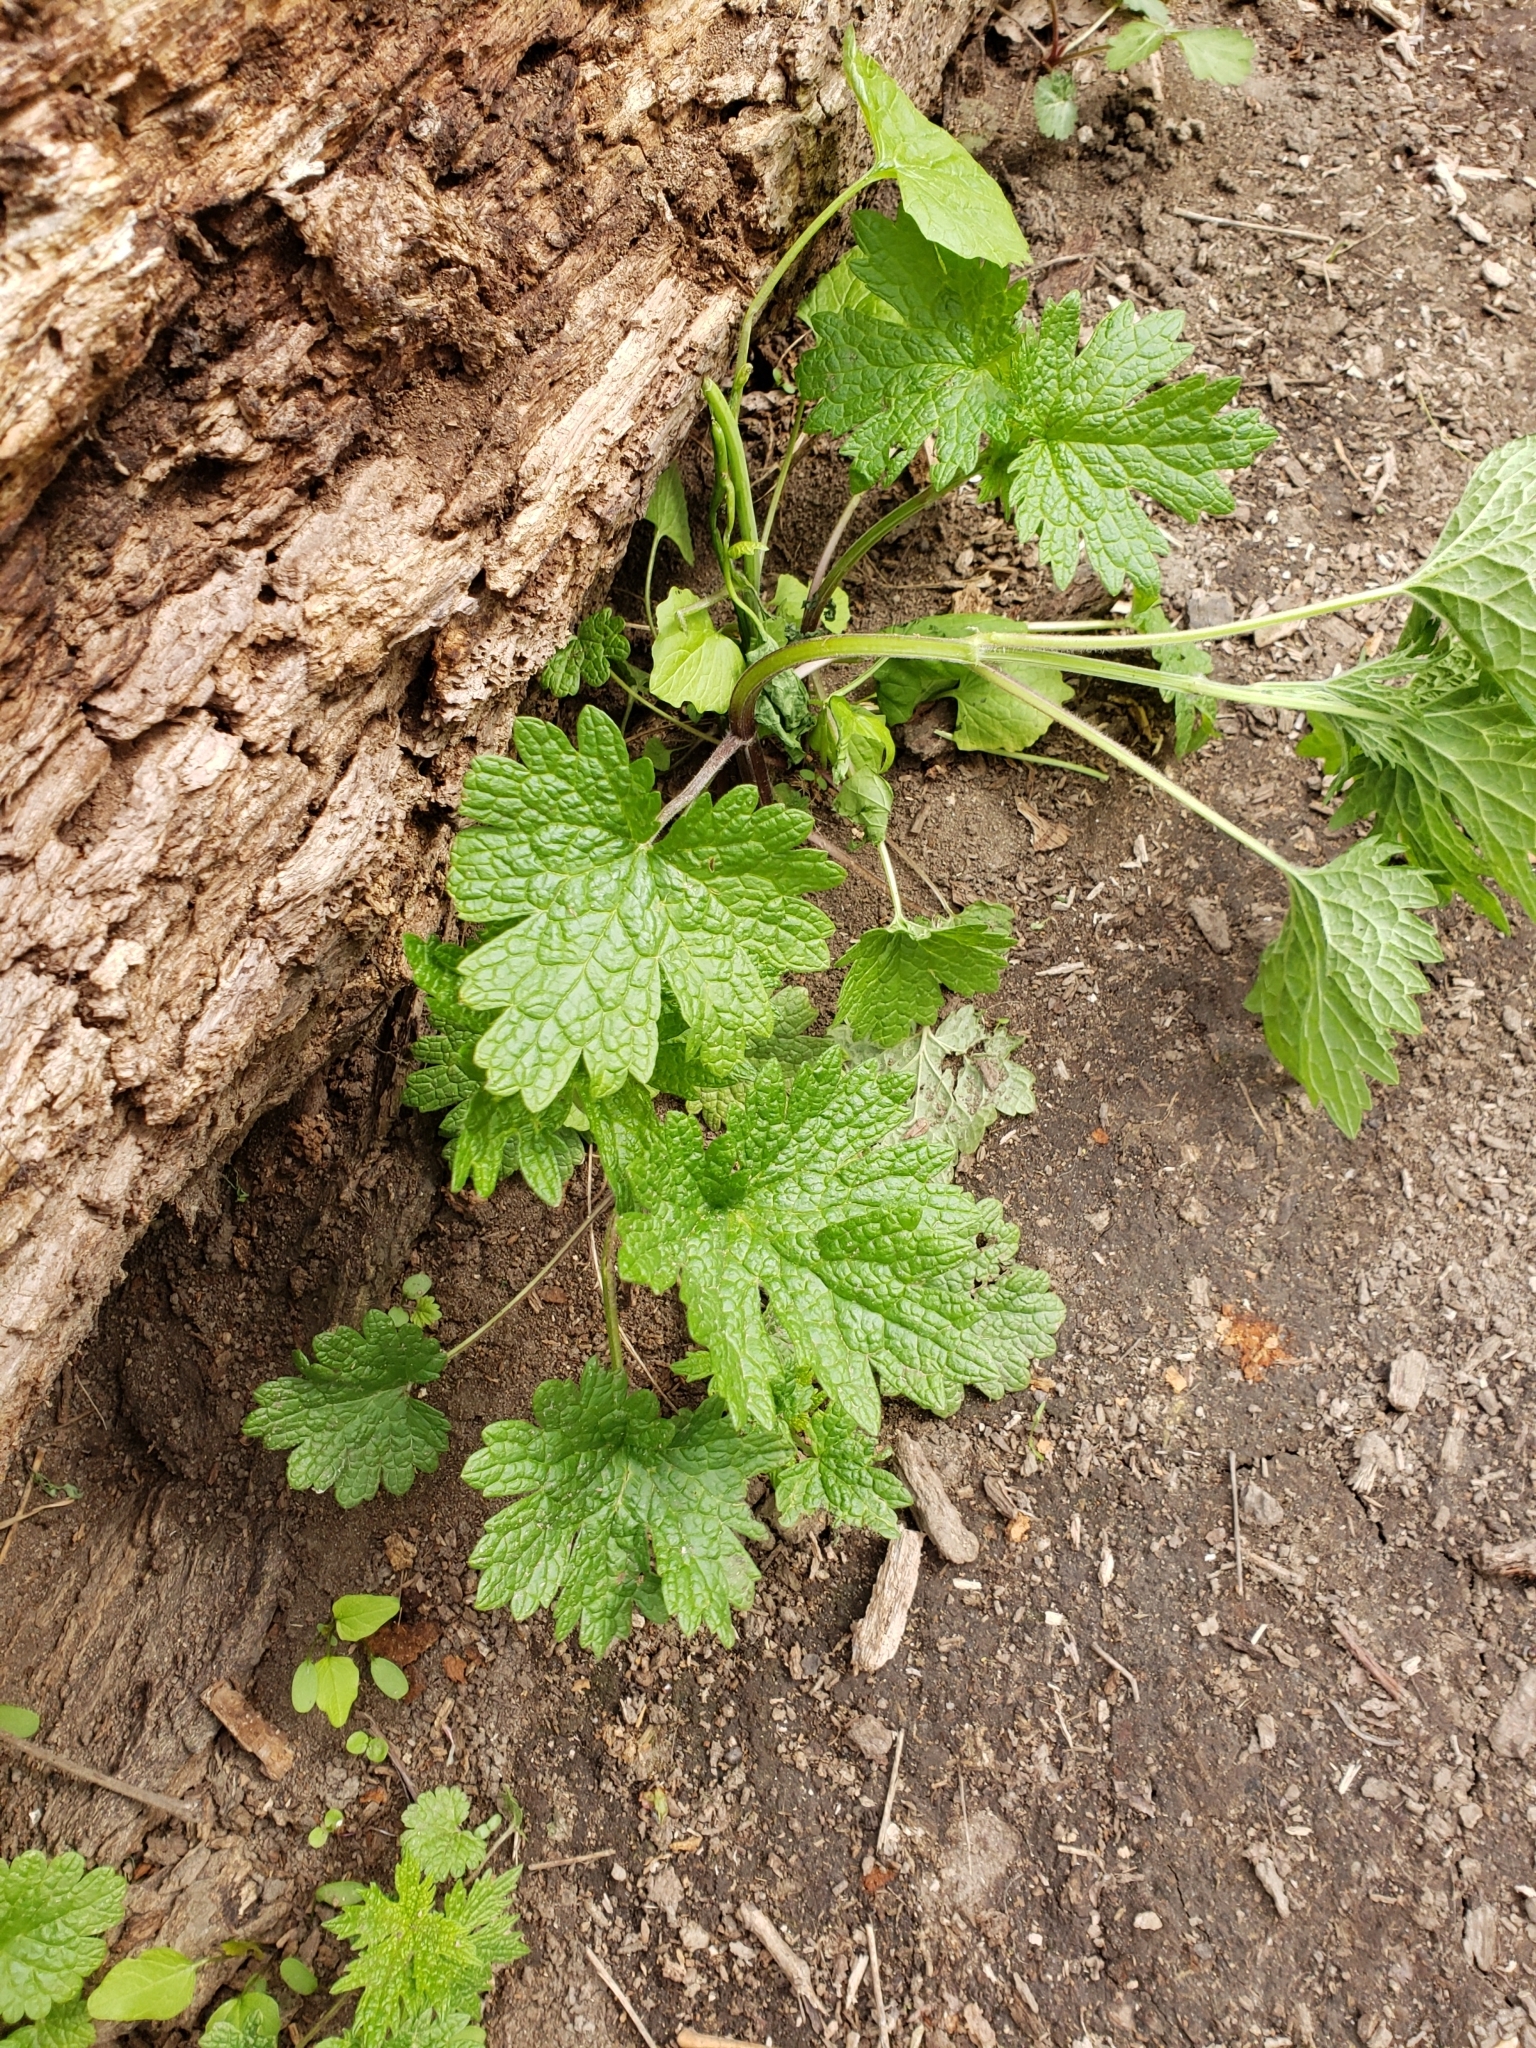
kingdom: Plantae
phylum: Tracheophyta
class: Magnoliopsida
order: Lamiales
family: Lamiaceae
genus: Leonurus
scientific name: Leonurus cardiaca
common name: Motherwort
